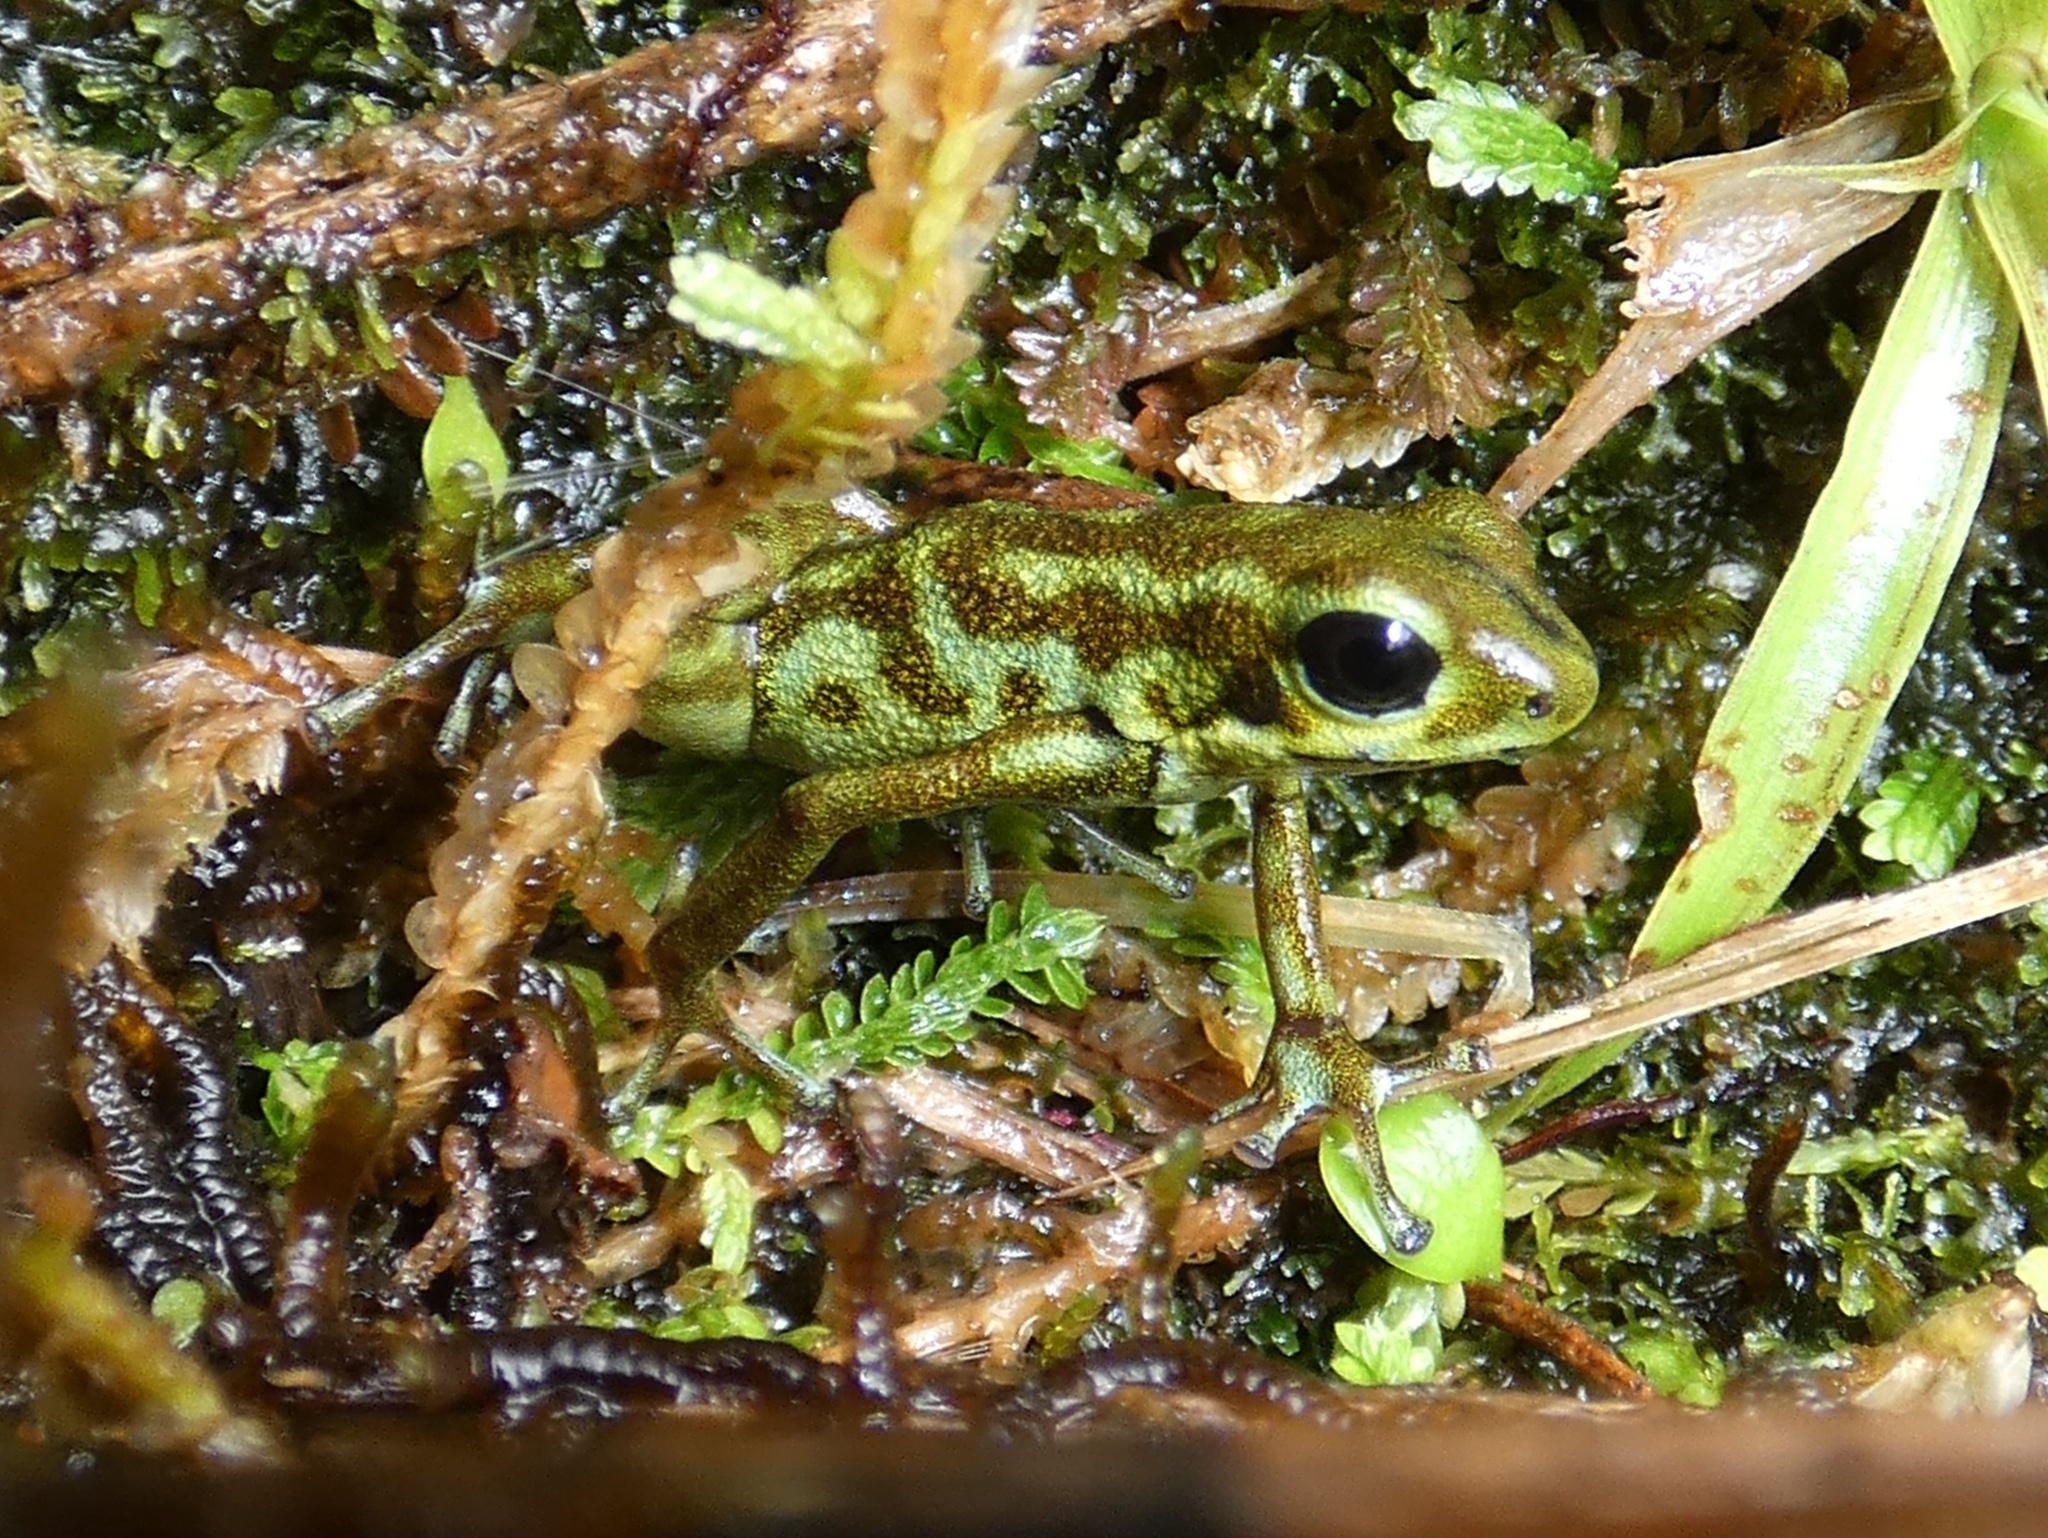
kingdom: Animalia
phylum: Chordata
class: Amphibia
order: Anura
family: Dendrobatidae
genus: Oophaga
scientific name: Oophaga vicentei
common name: Vicente's poison frog
